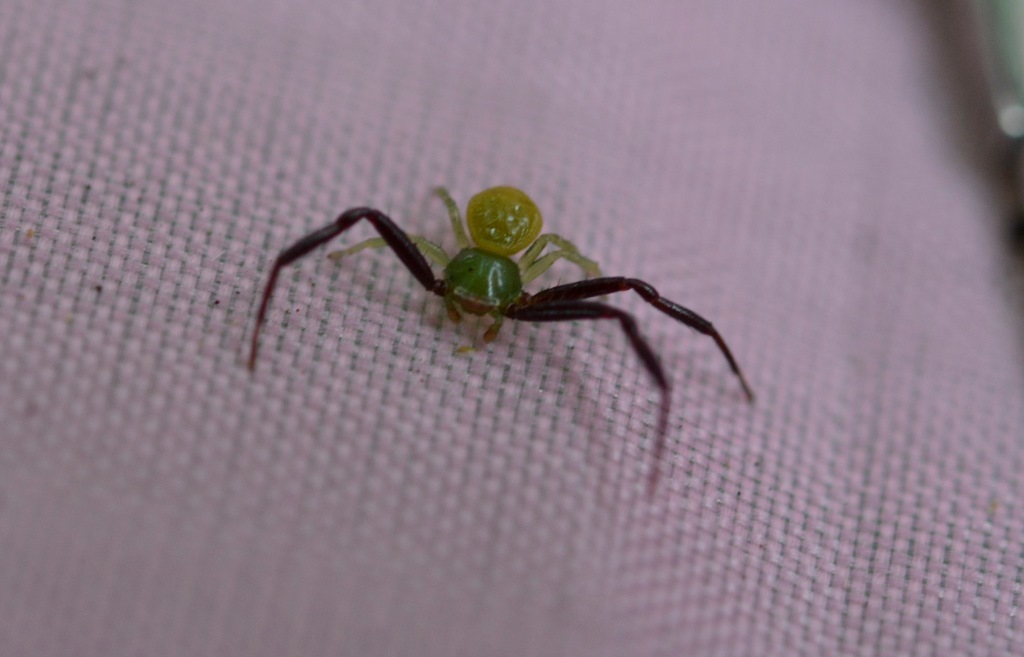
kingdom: Animalia
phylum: Arthropoda
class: Arachnida
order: Araneae
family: Thomisidae
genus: Misumenoides
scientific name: Misumenoides formosipes
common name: White-banded crab spider
